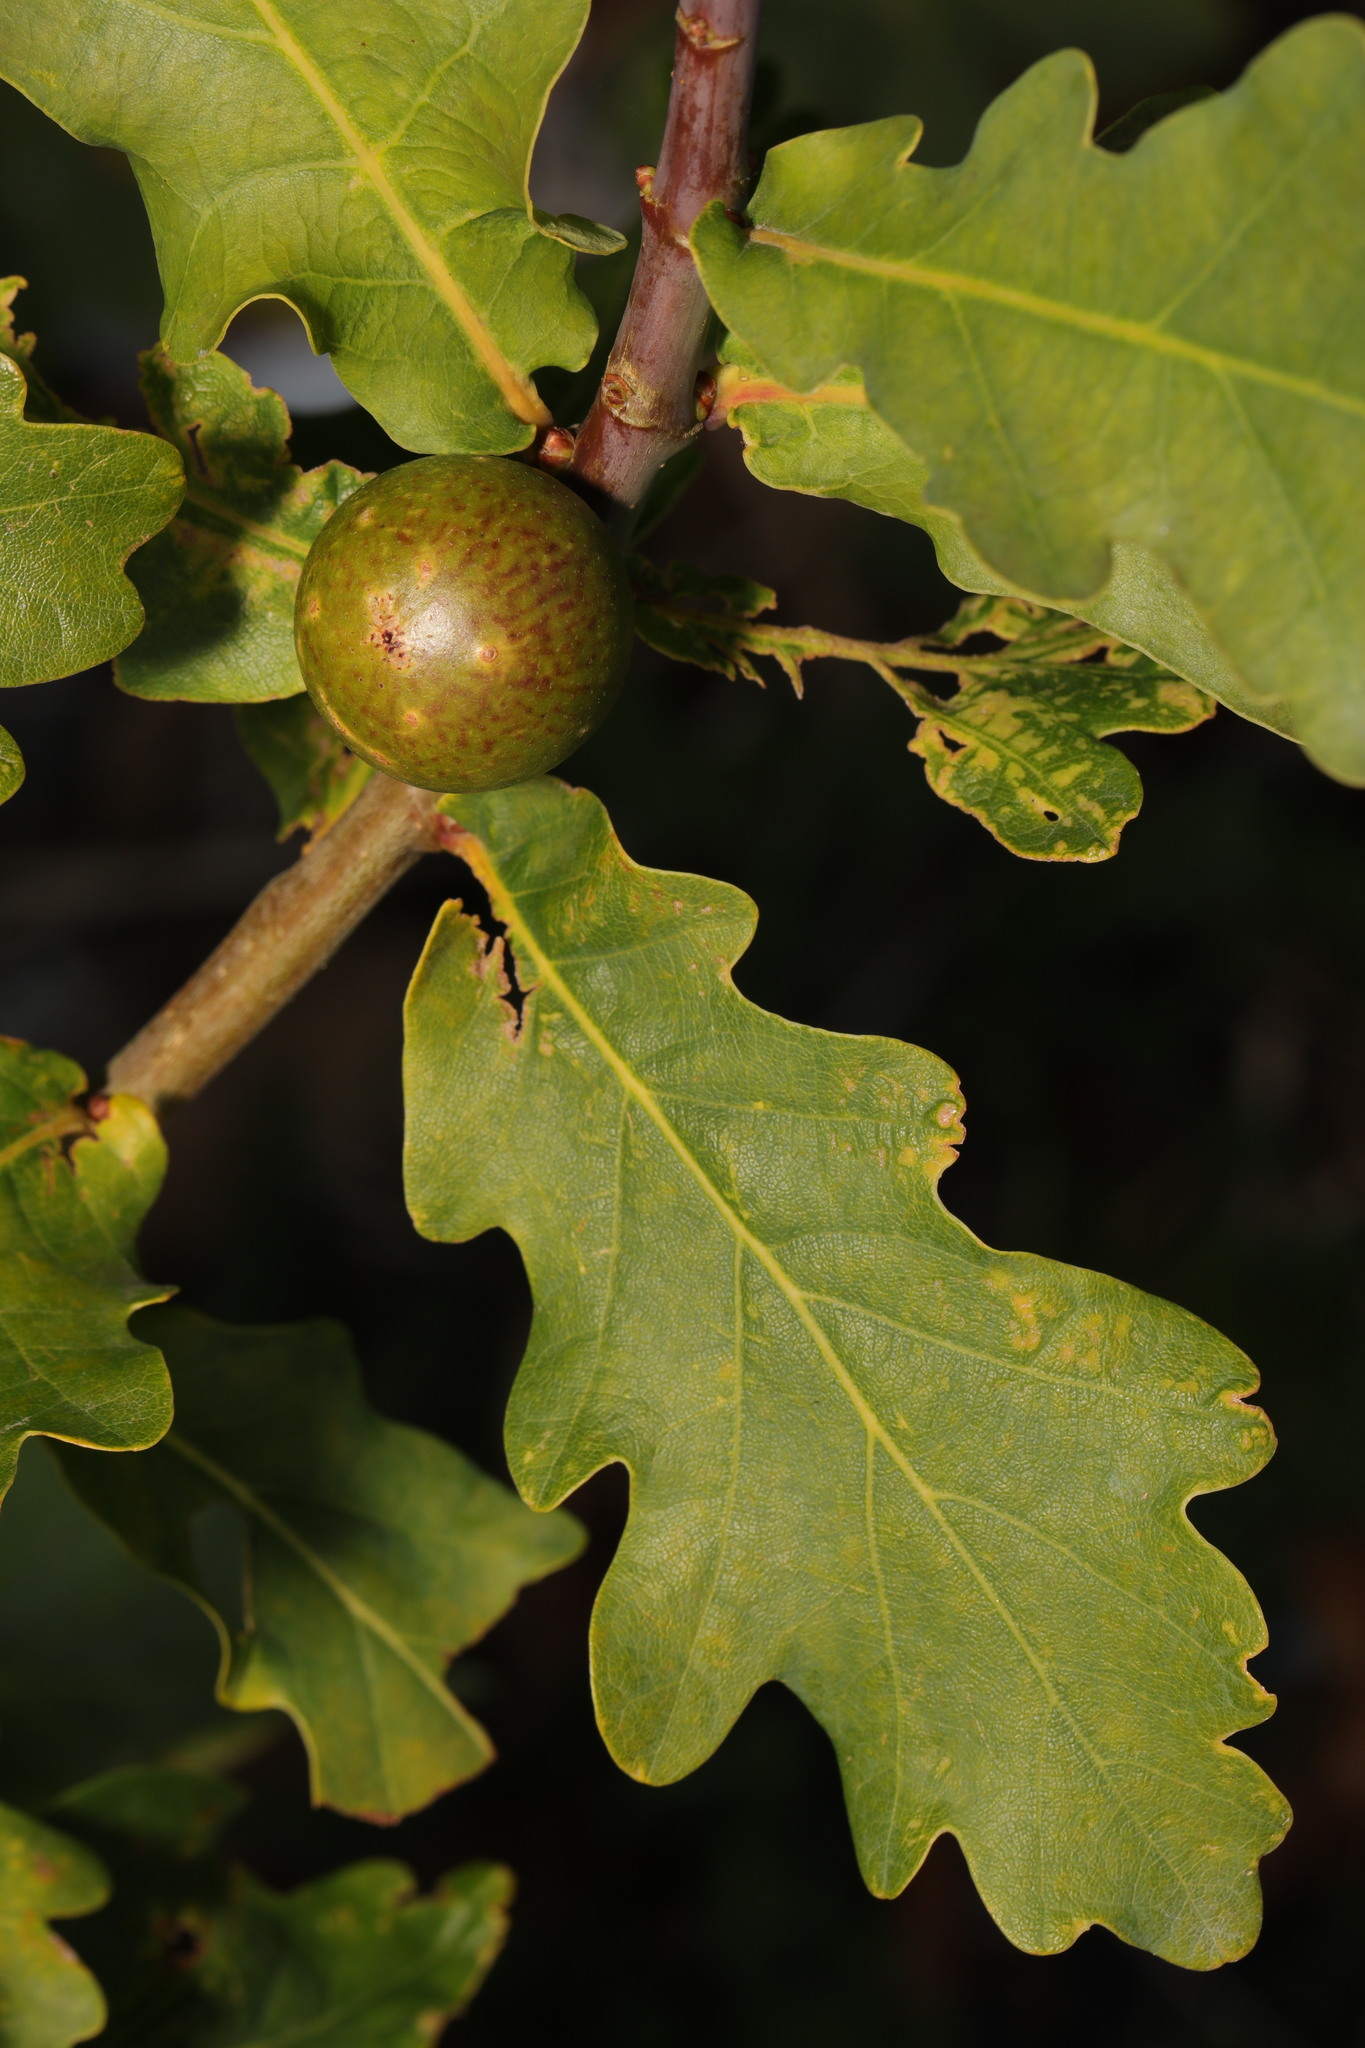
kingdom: Animalia
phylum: Arthropoda
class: Insecta
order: Hymenoptera
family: Cynipidae
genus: Andricus
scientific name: Andricus kollari
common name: Marble gall
